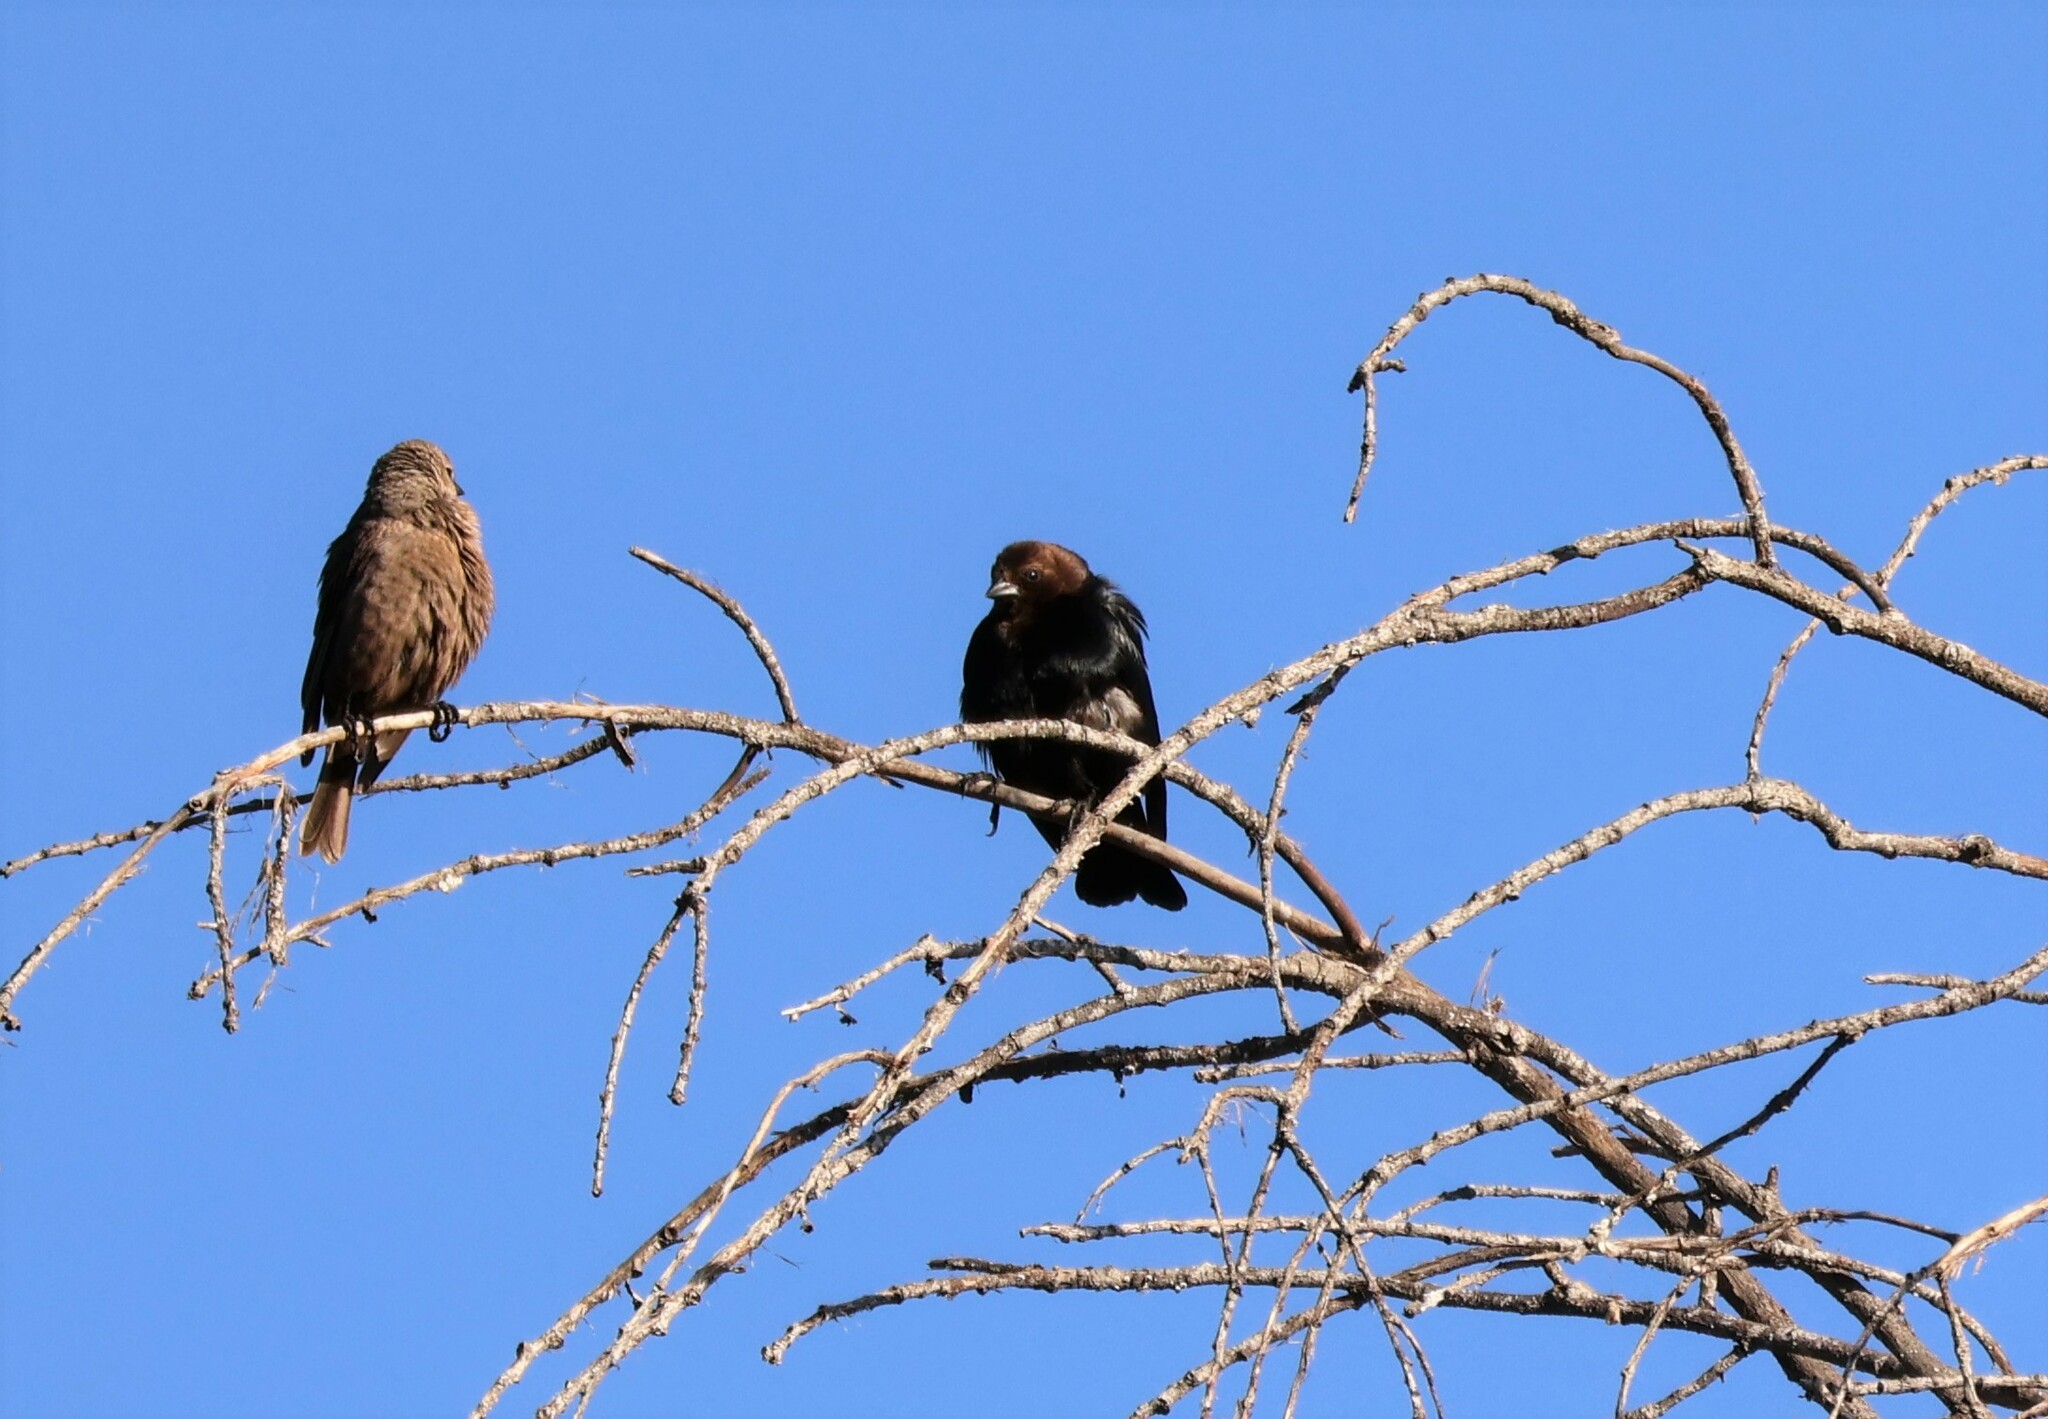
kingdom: Animalia
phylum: Chordata
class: Aves
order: Passeriformes
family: Icteridae
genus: Molothrus
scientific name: Molothrus ater
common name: Brown-headed cowbird
